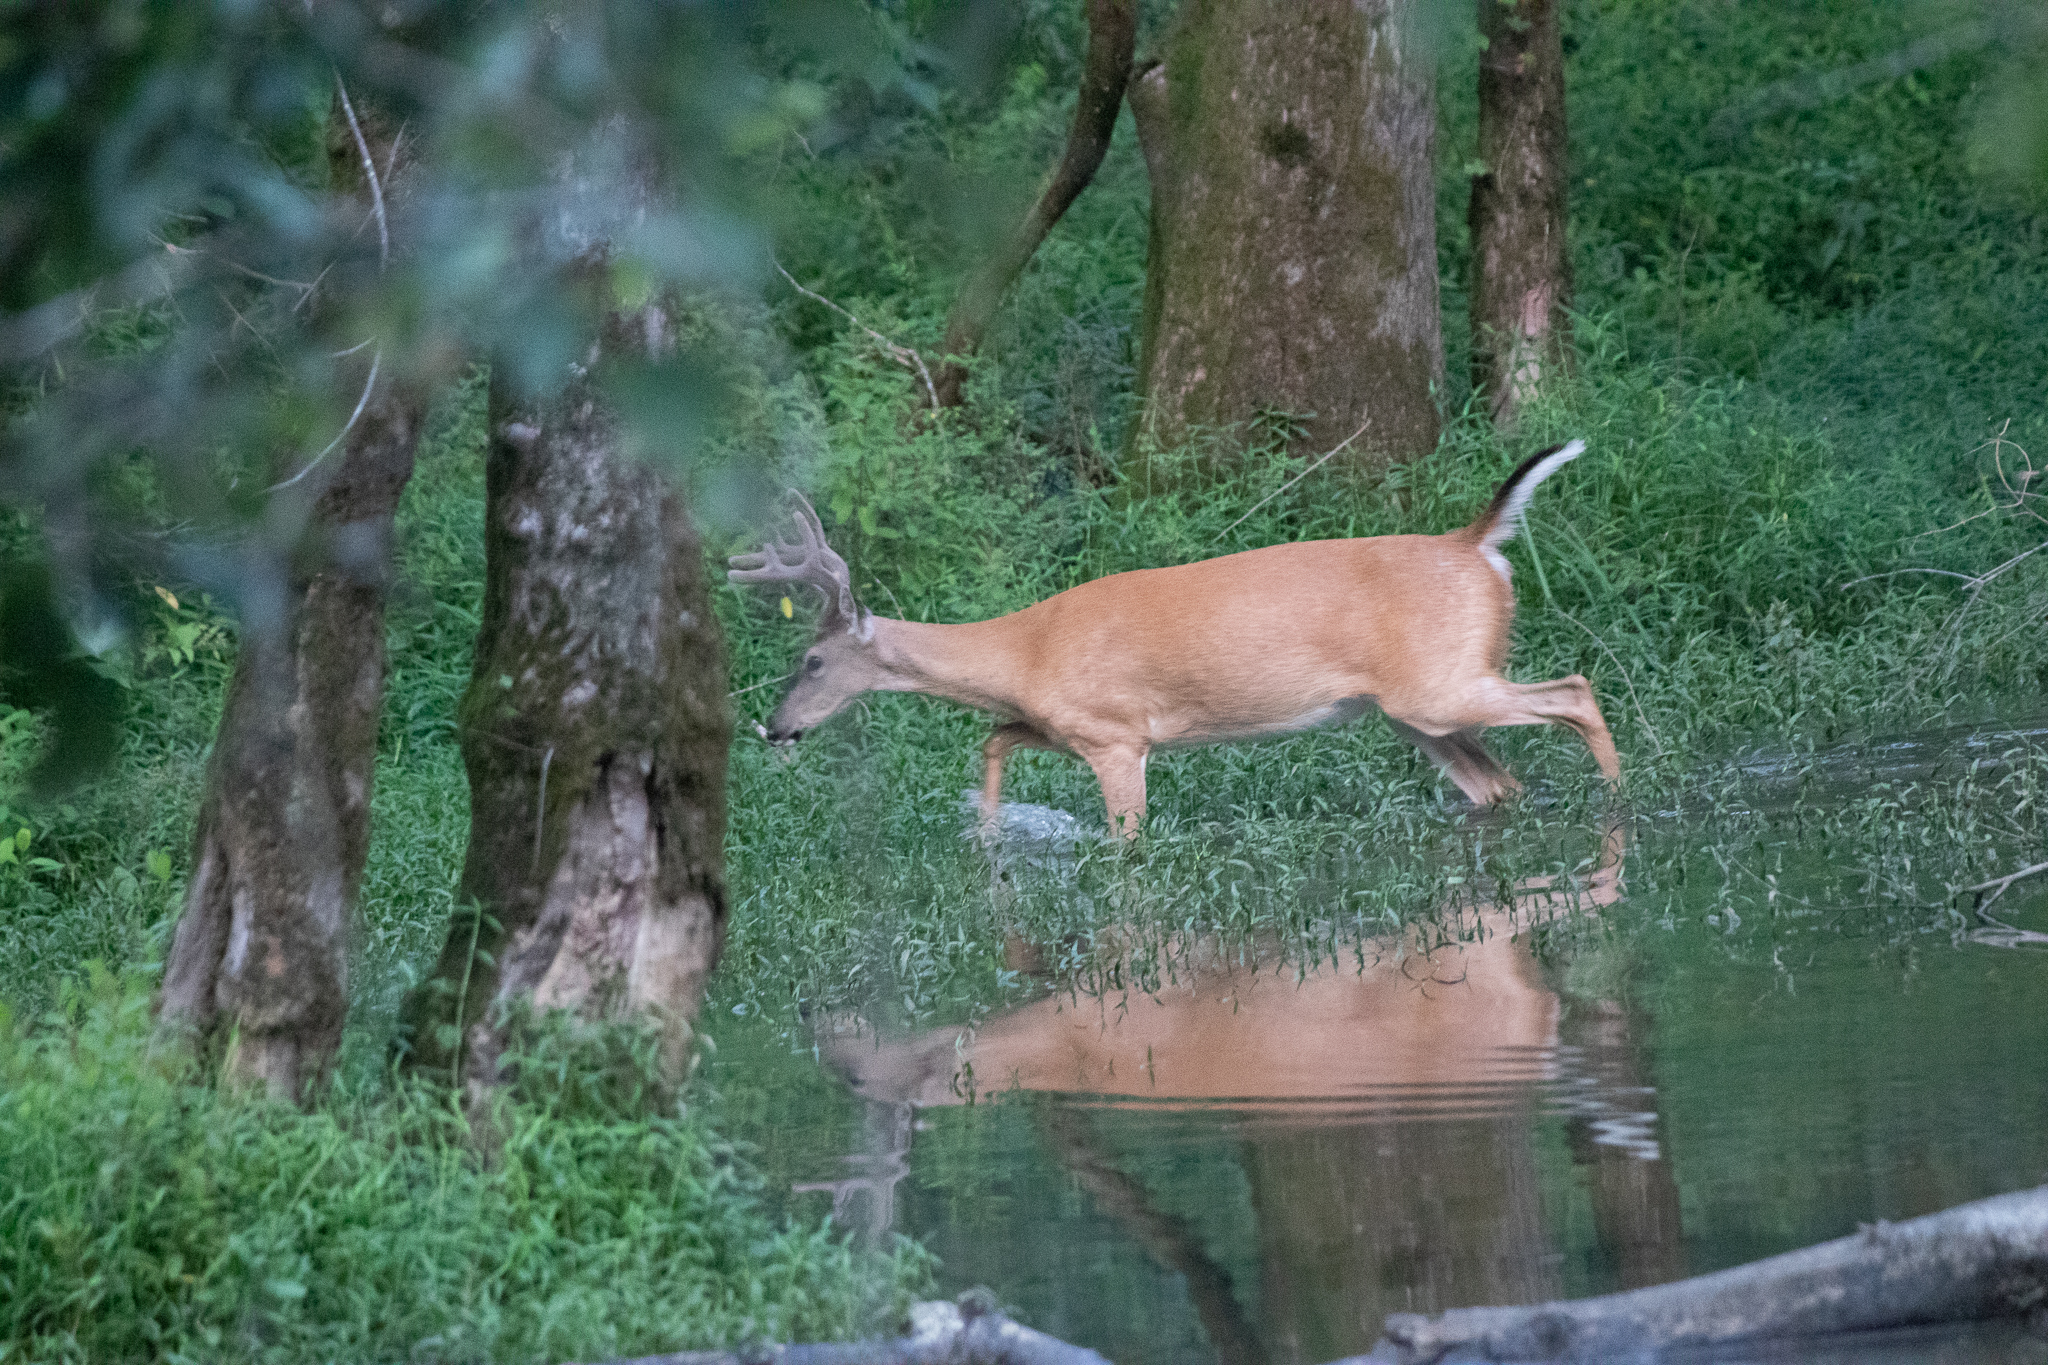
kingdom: Animalia
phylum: Chordata
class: Mammalia
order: Artiodactyla
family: Cervidae
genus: Odocoileus
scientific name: Odocoileus virginianus
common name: White-tailed deer
